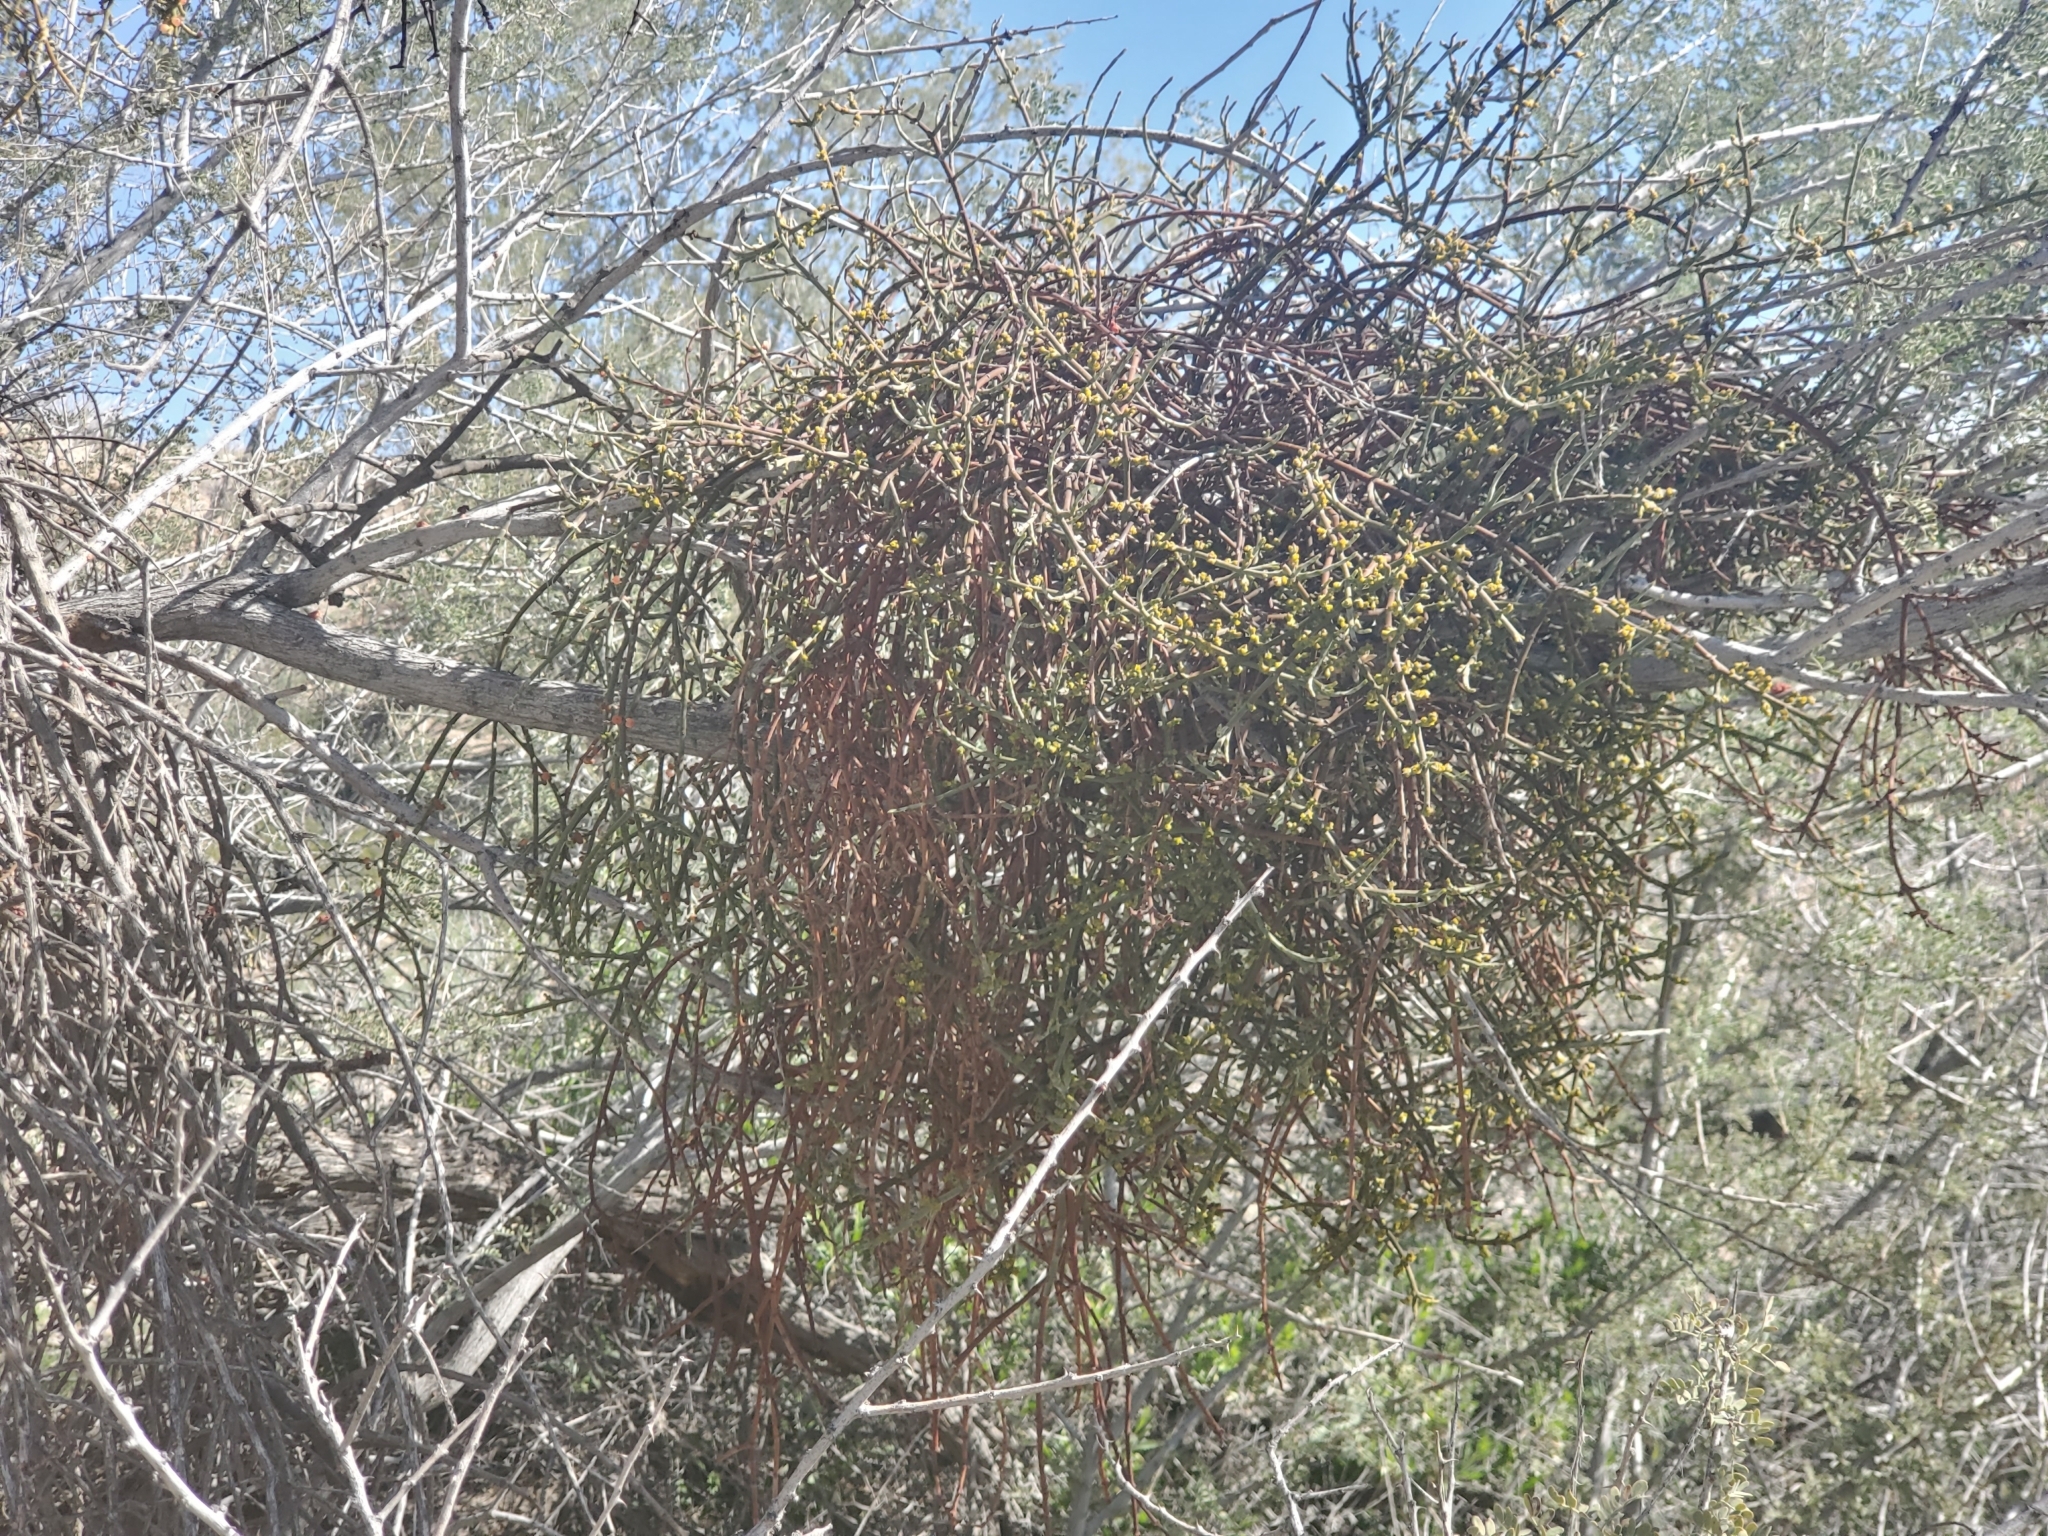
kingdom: Plantae
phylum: Tracheophyta
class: Magnoliopsida
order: Santalales
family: Viscaceae
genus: Phoradendron
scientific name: Phoradendron californicum
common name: Acacia mistletoe
